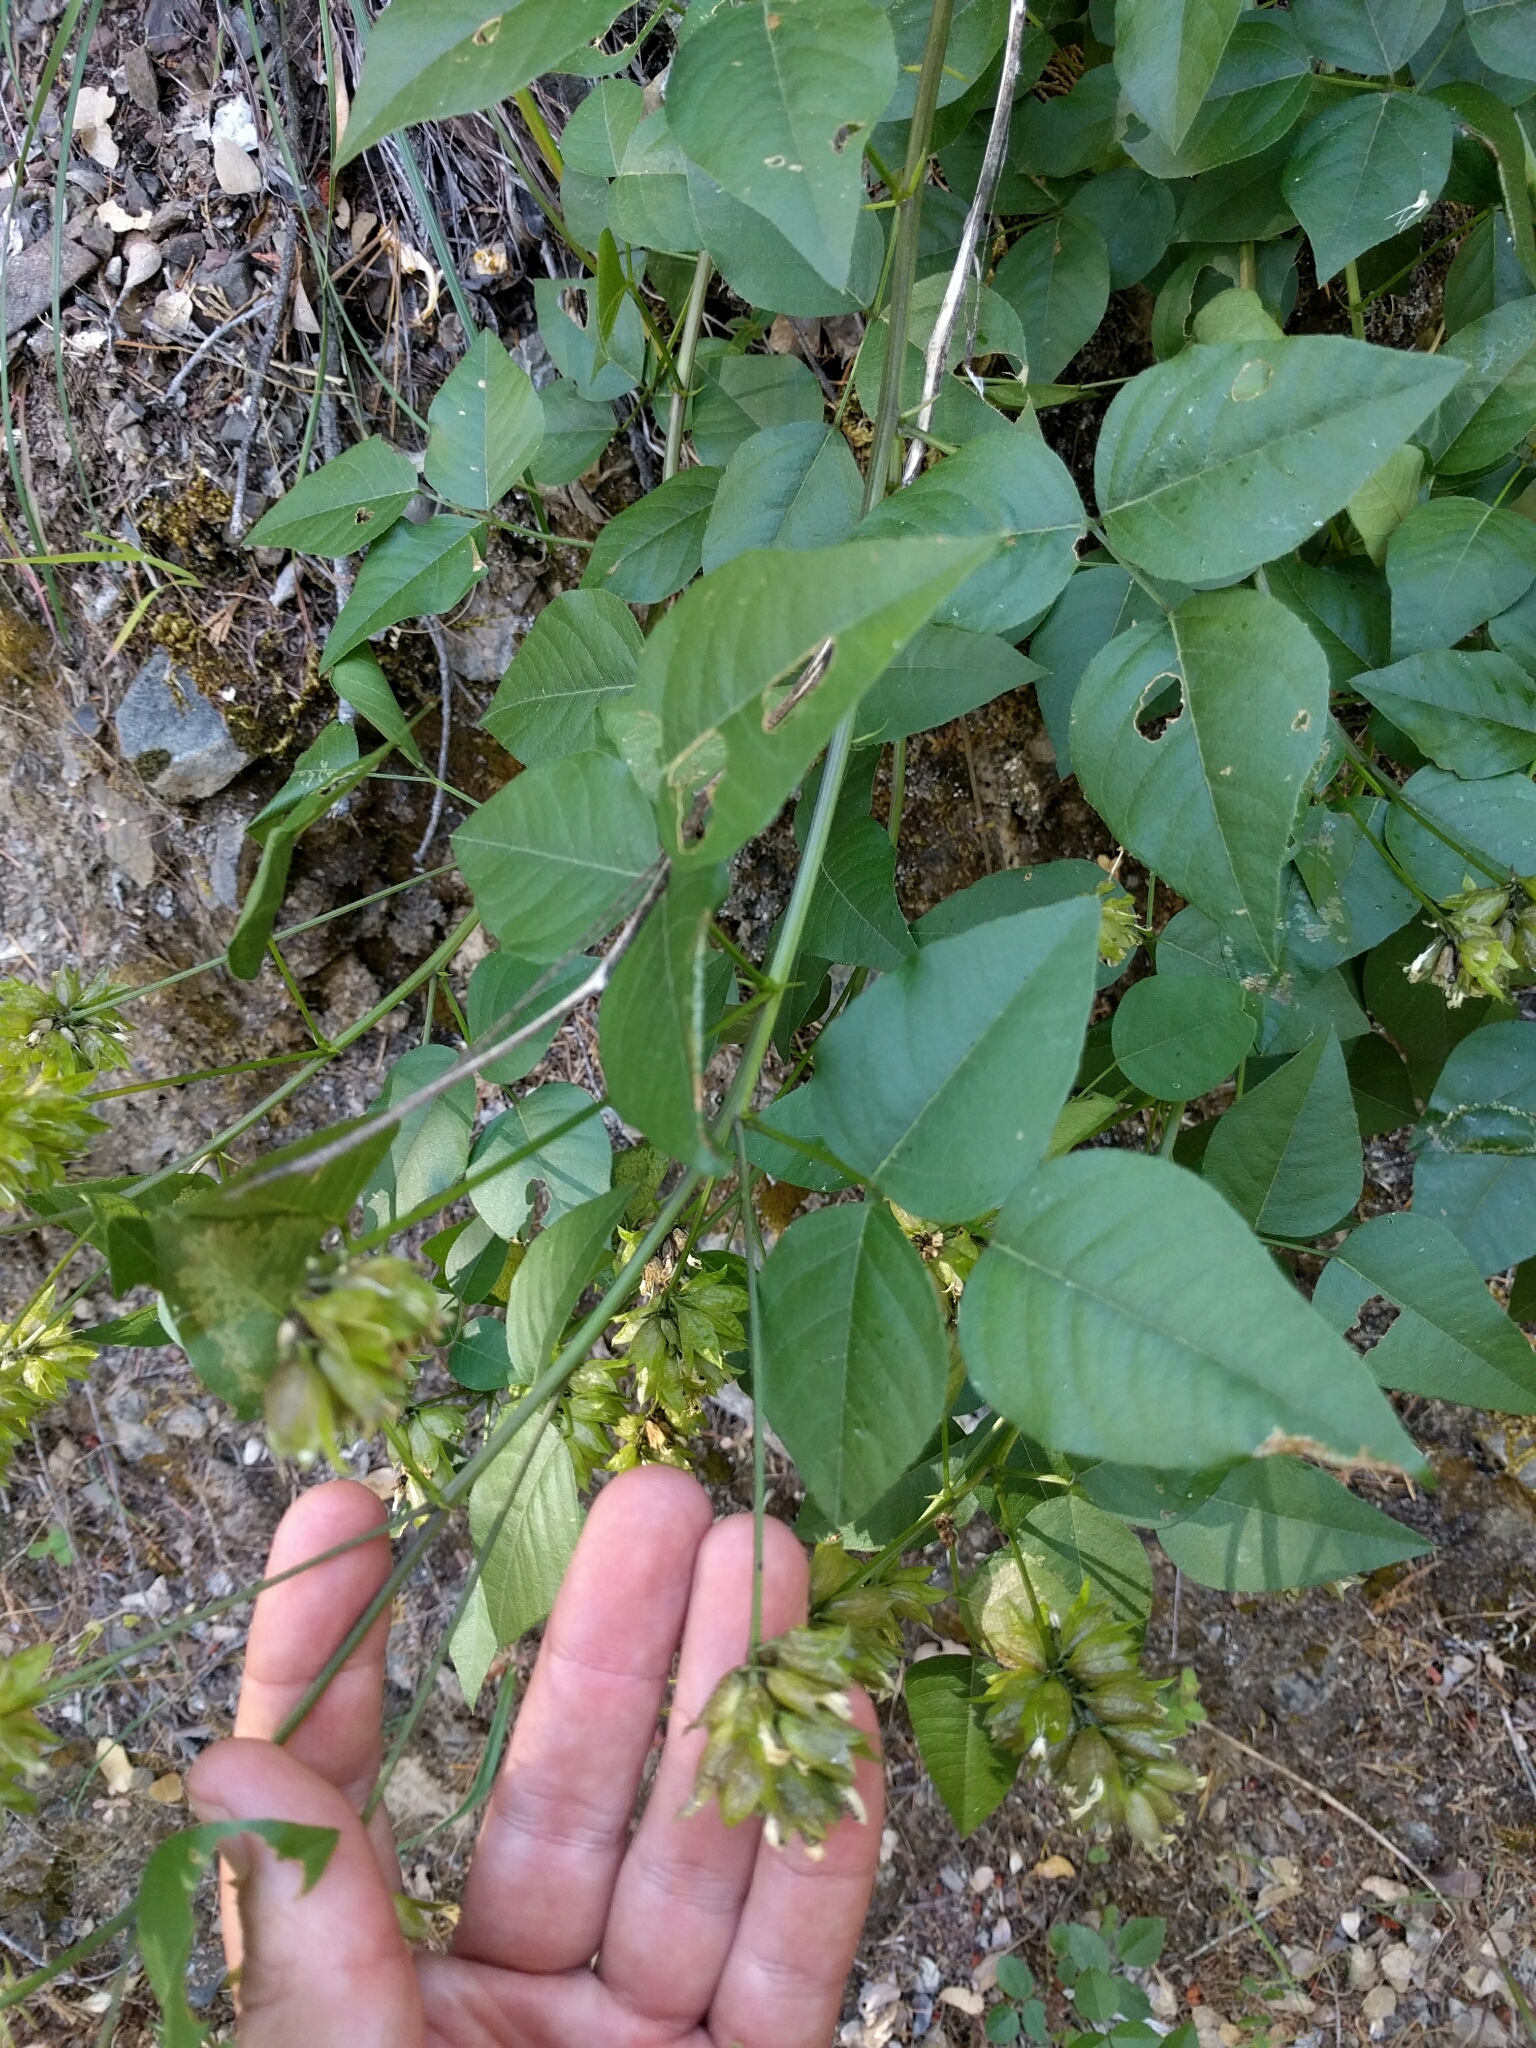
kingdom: Plantae
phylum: Tracheophyta
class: Magnoliopsida
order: Fabales
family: Fabaceae
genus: Rupertia
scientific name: Rupertia physodes
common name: California-tea
